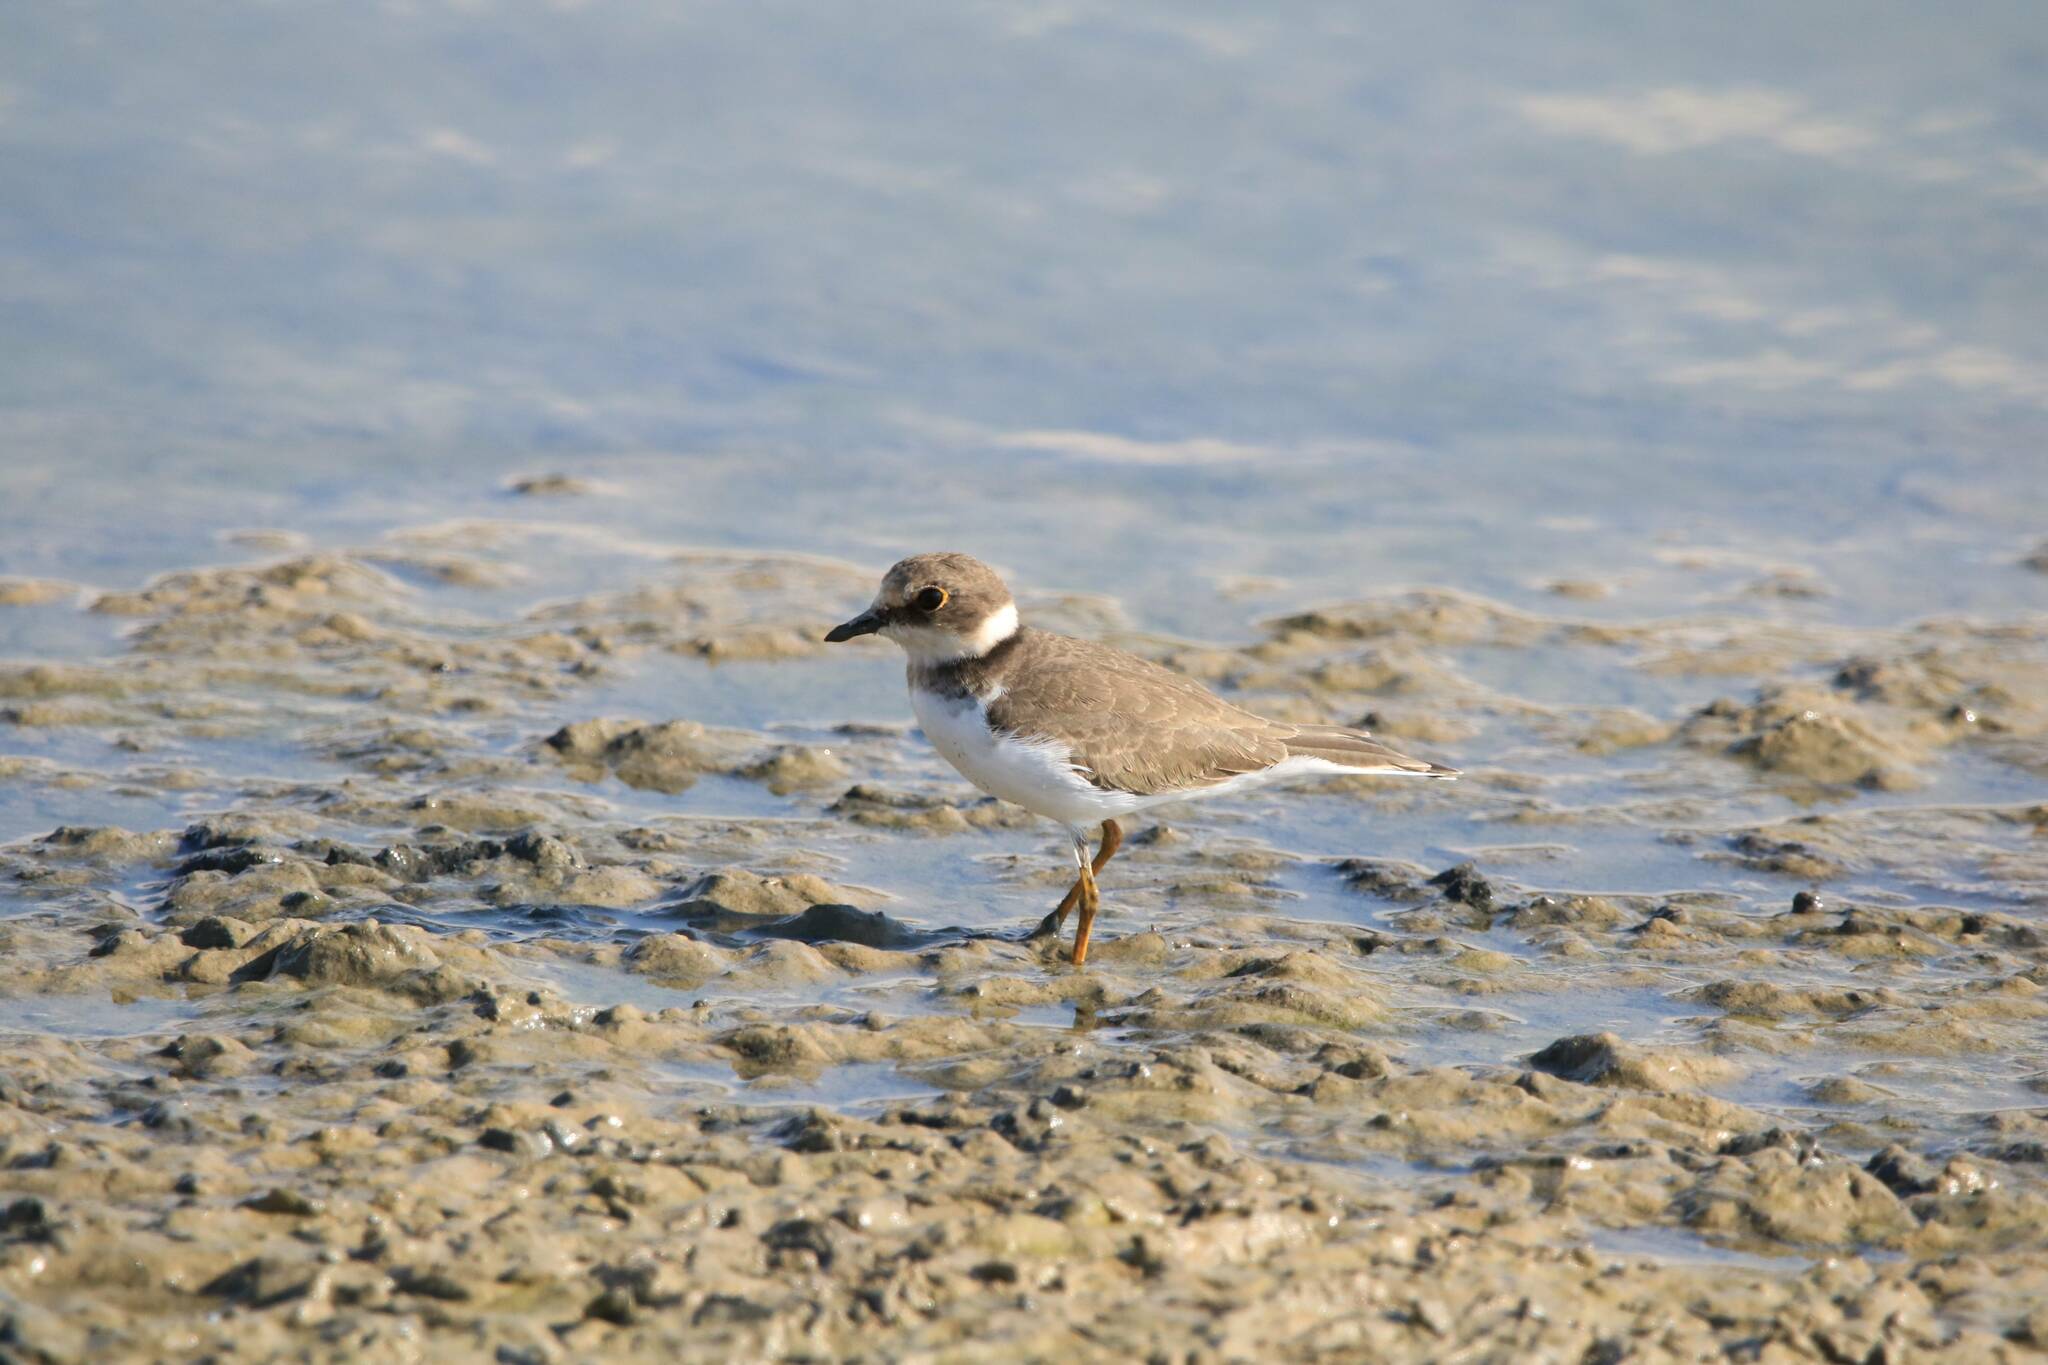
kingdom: Animalia
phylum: Chordata
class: Aves
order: Charadriiformes
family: Charadriidae
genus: Charadrius
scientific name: Charadrius dubius
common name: Little ringed plover
